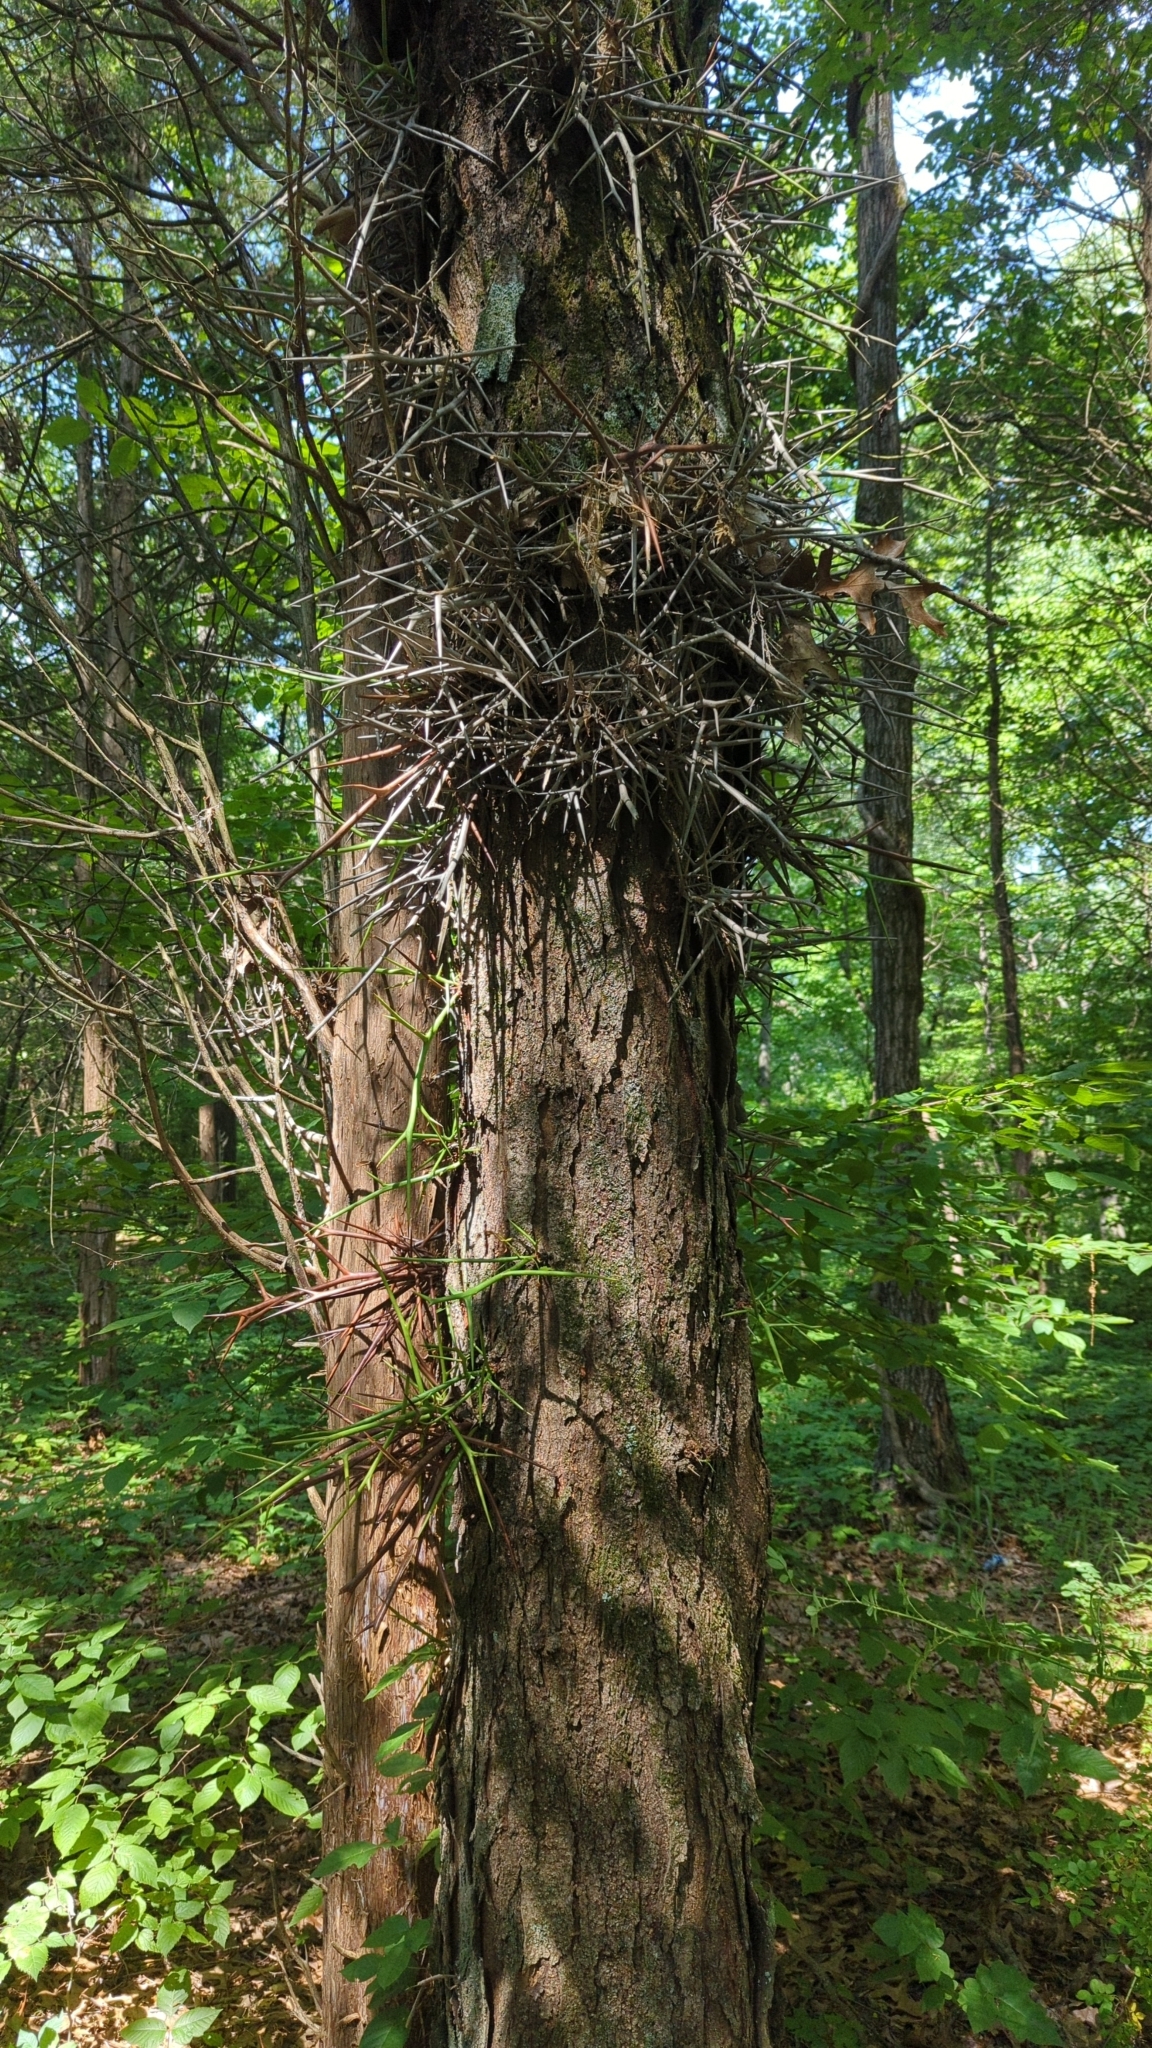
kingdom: Plantae
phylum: Tracheophyta
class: Magnoliopsida
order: Fabales
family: Fabaceae
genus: Gleditsia
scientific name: Gleditsia triacanthos
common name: Common honeylocust
